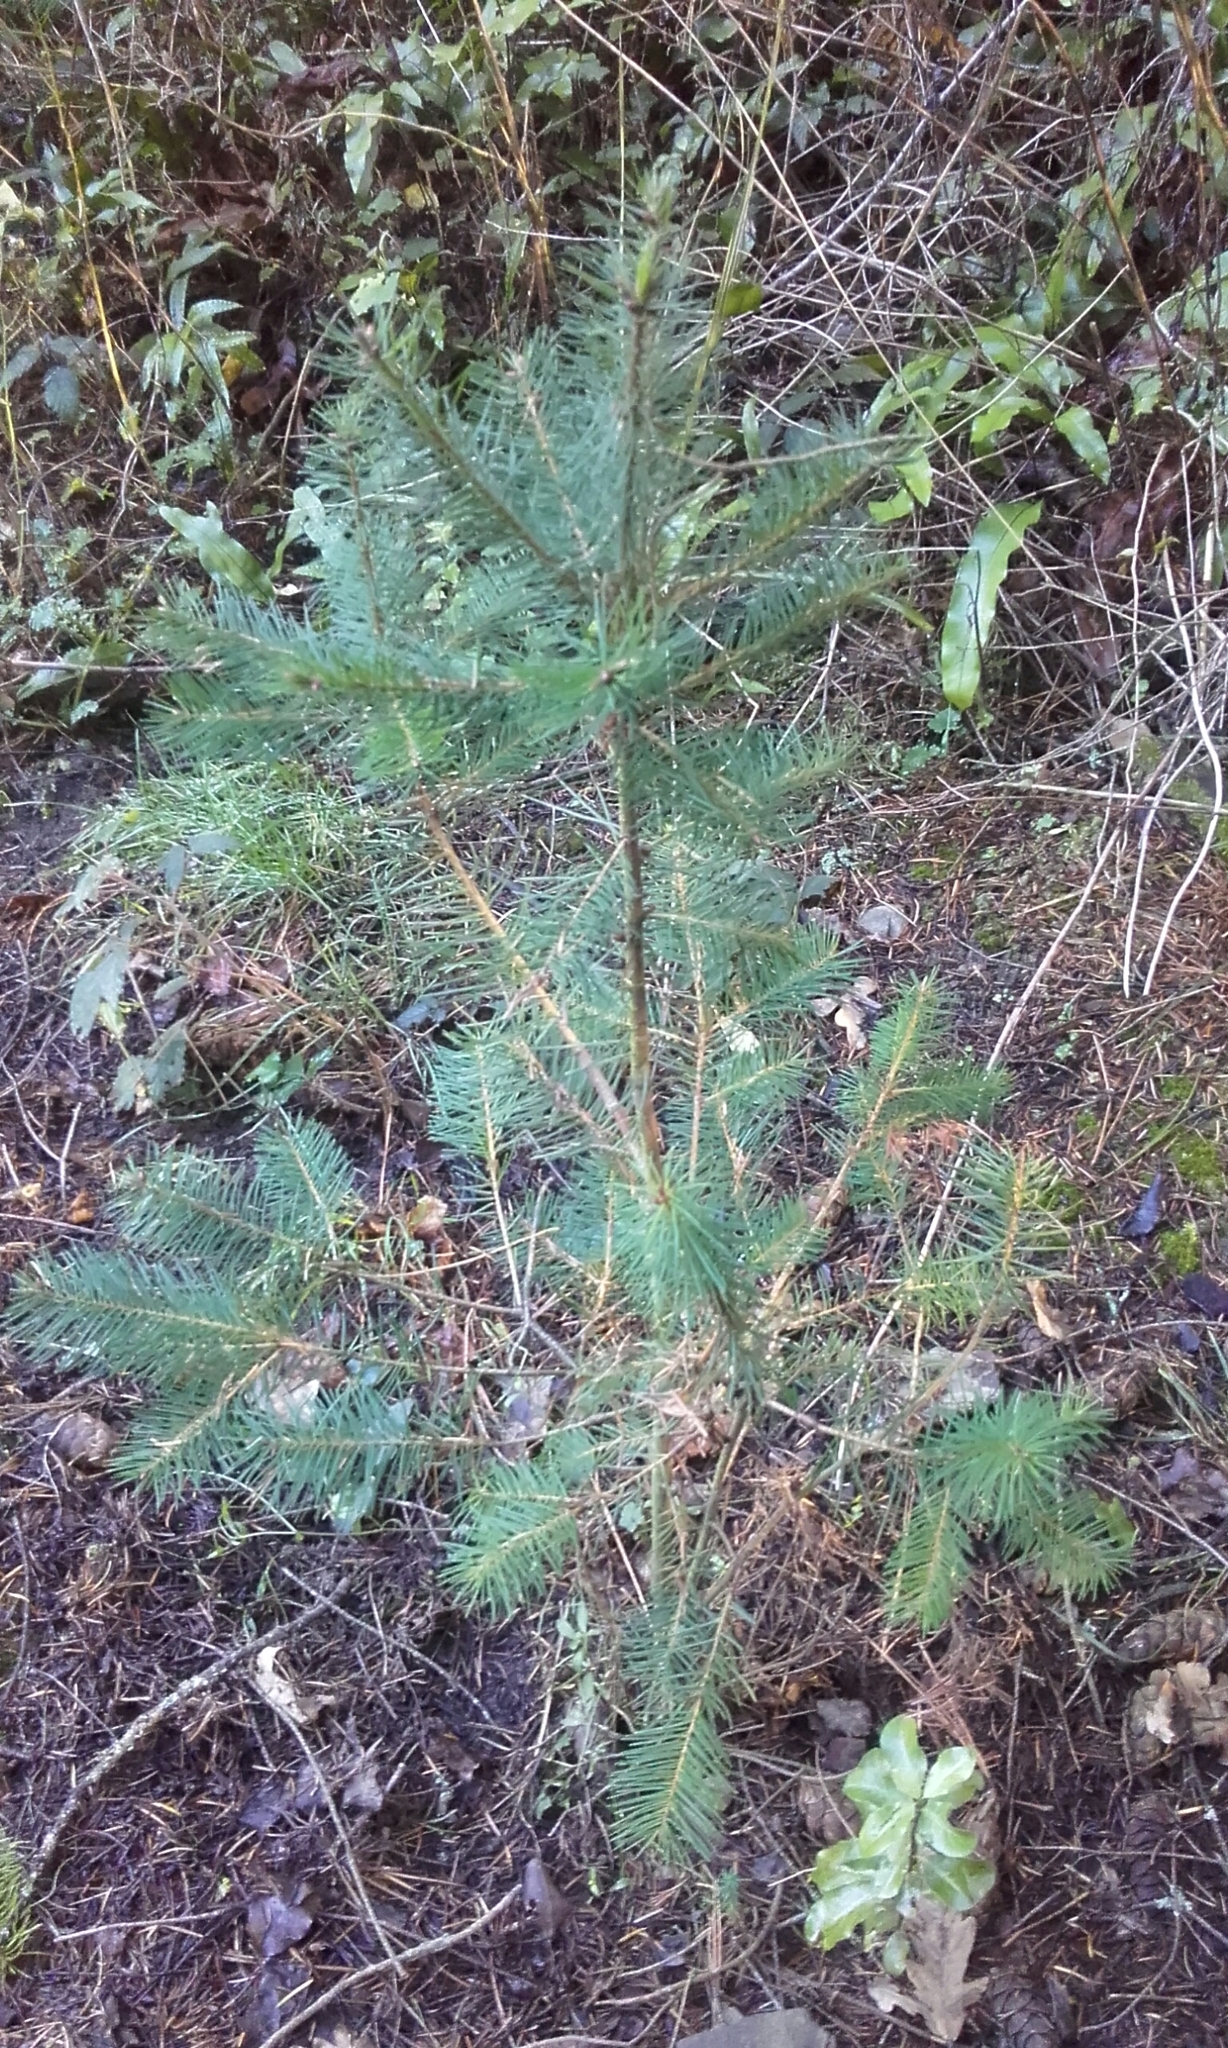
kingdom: Plantae
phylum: Tracheophyta
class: Pinopsida
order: Pinales
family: Pinaceae
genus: Pseudotsuga
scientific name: Pseudotsuga menziesii
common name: Douglas fir
